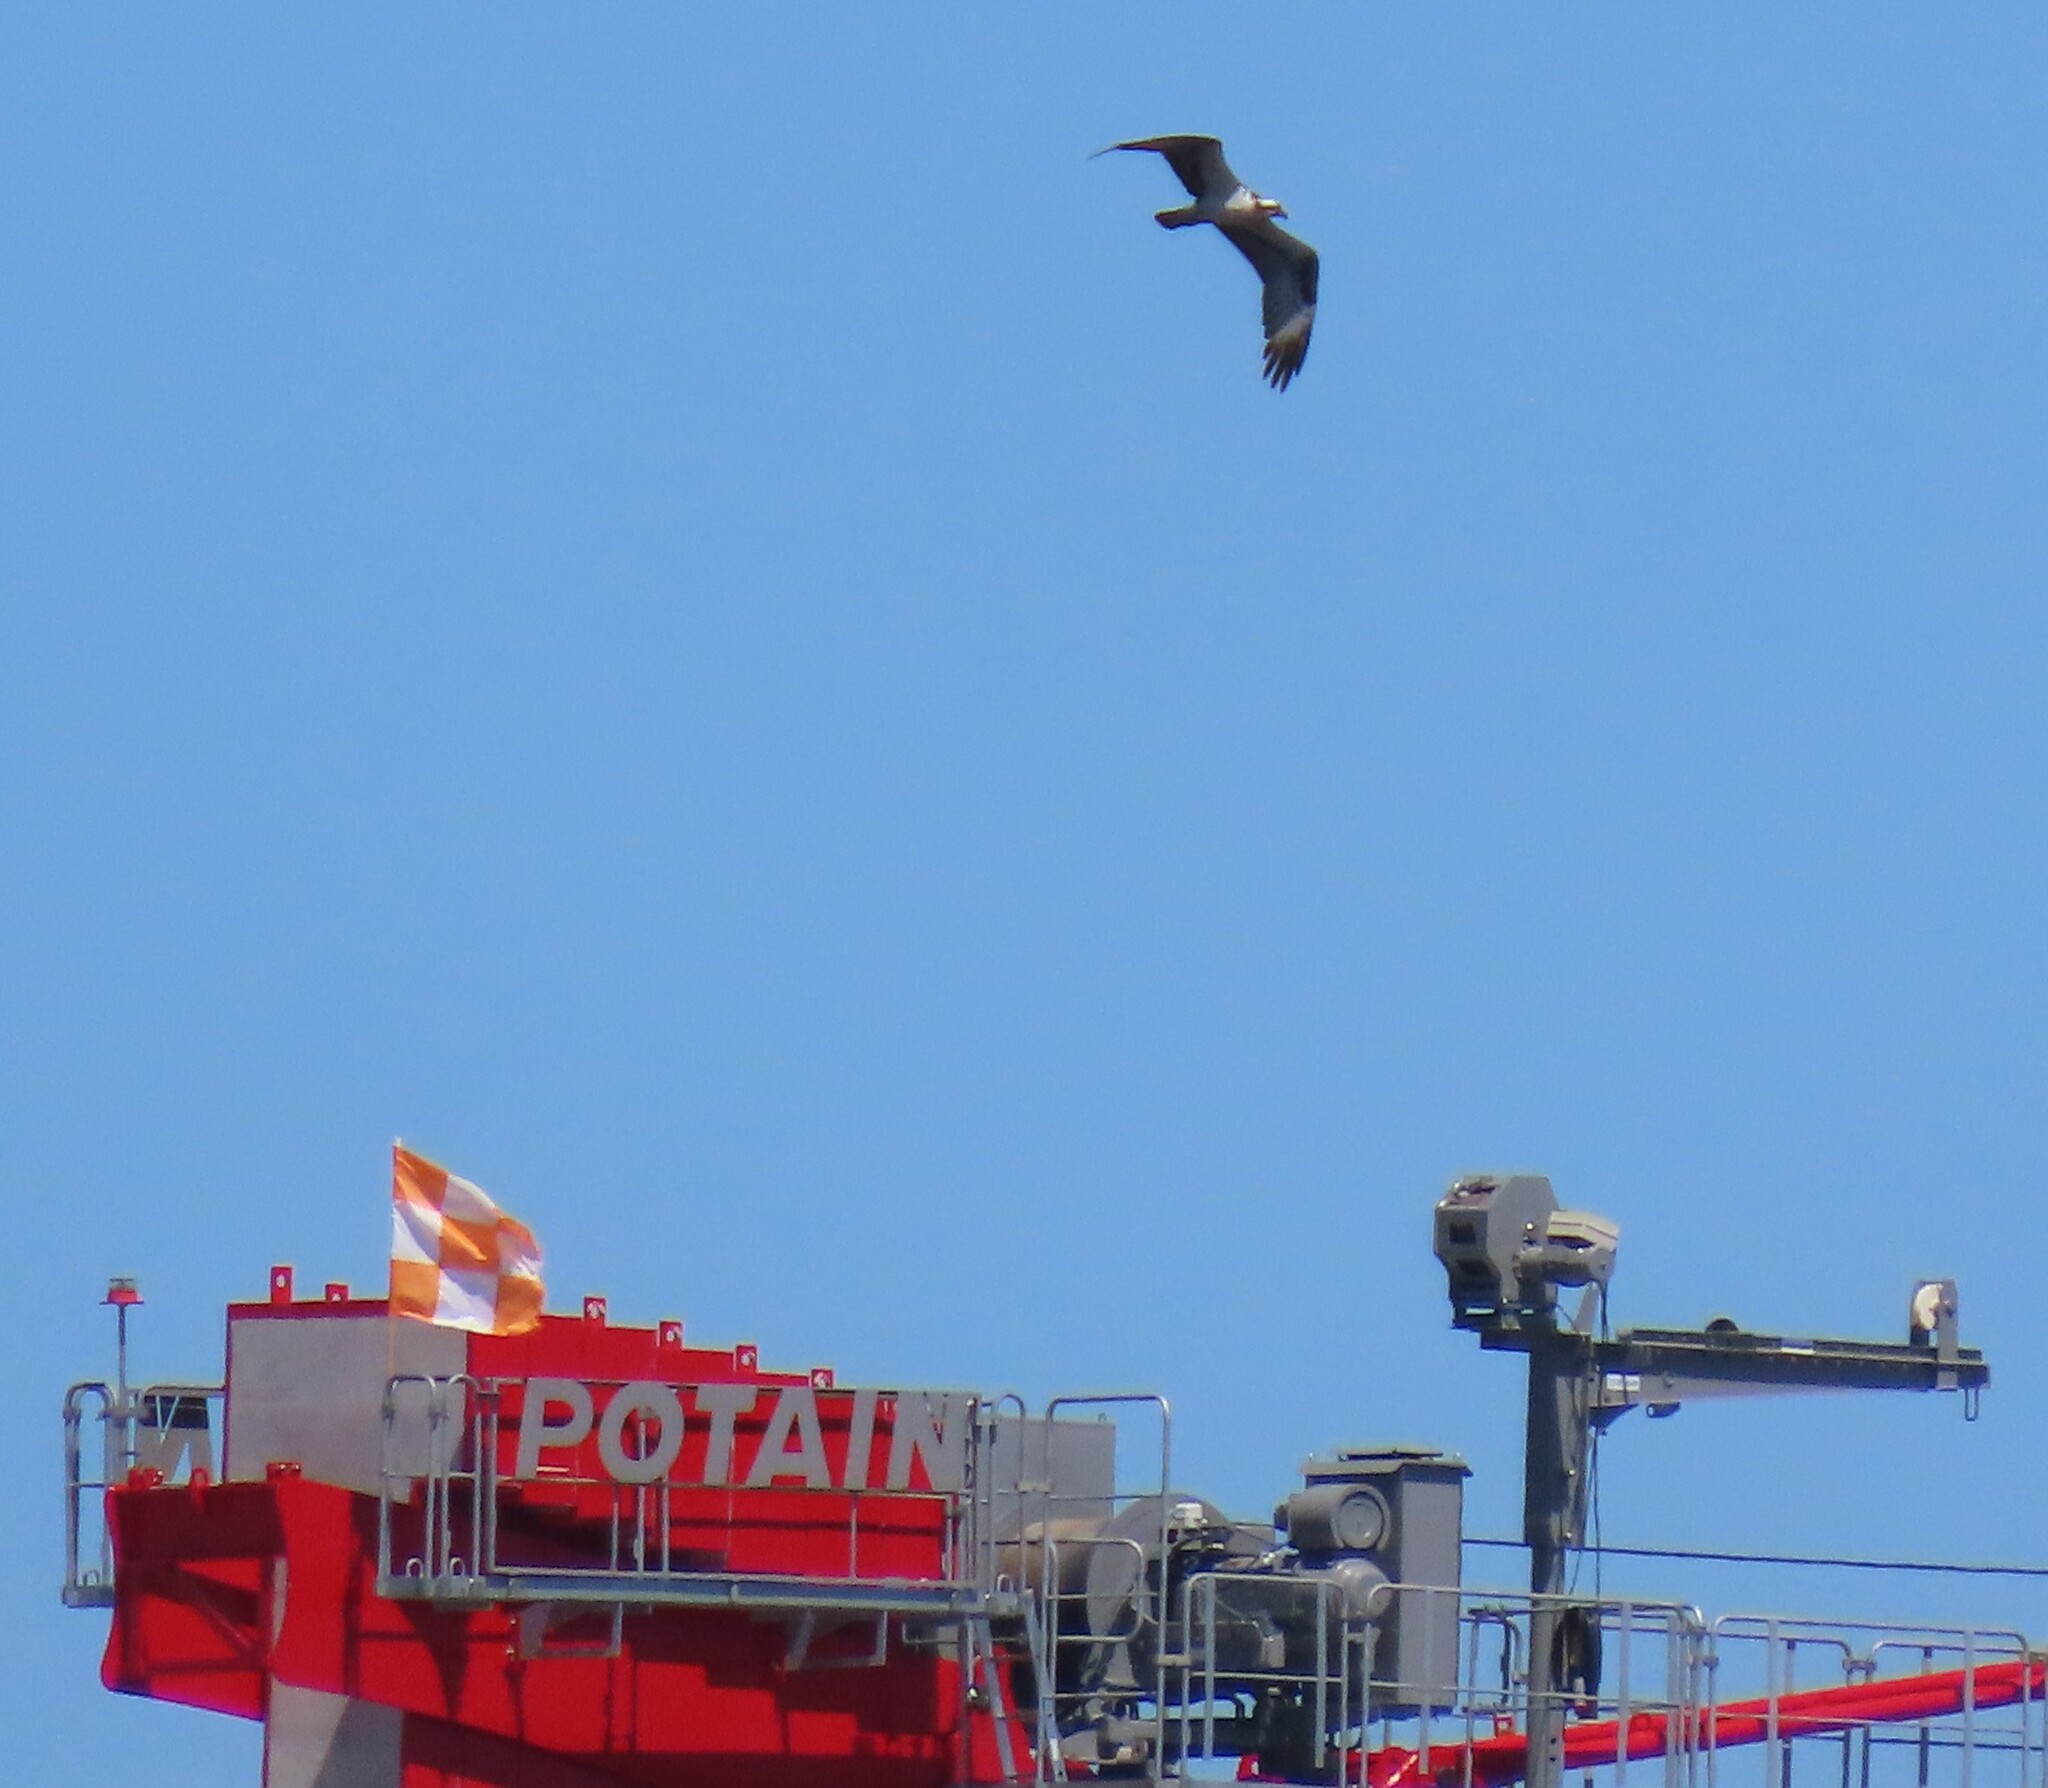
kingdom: Animalia
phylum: Chordata
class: Aves
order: Accipitriformes
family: Pandionidae
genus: Pandion
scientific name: Pandion haliaetus
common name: Osprey
